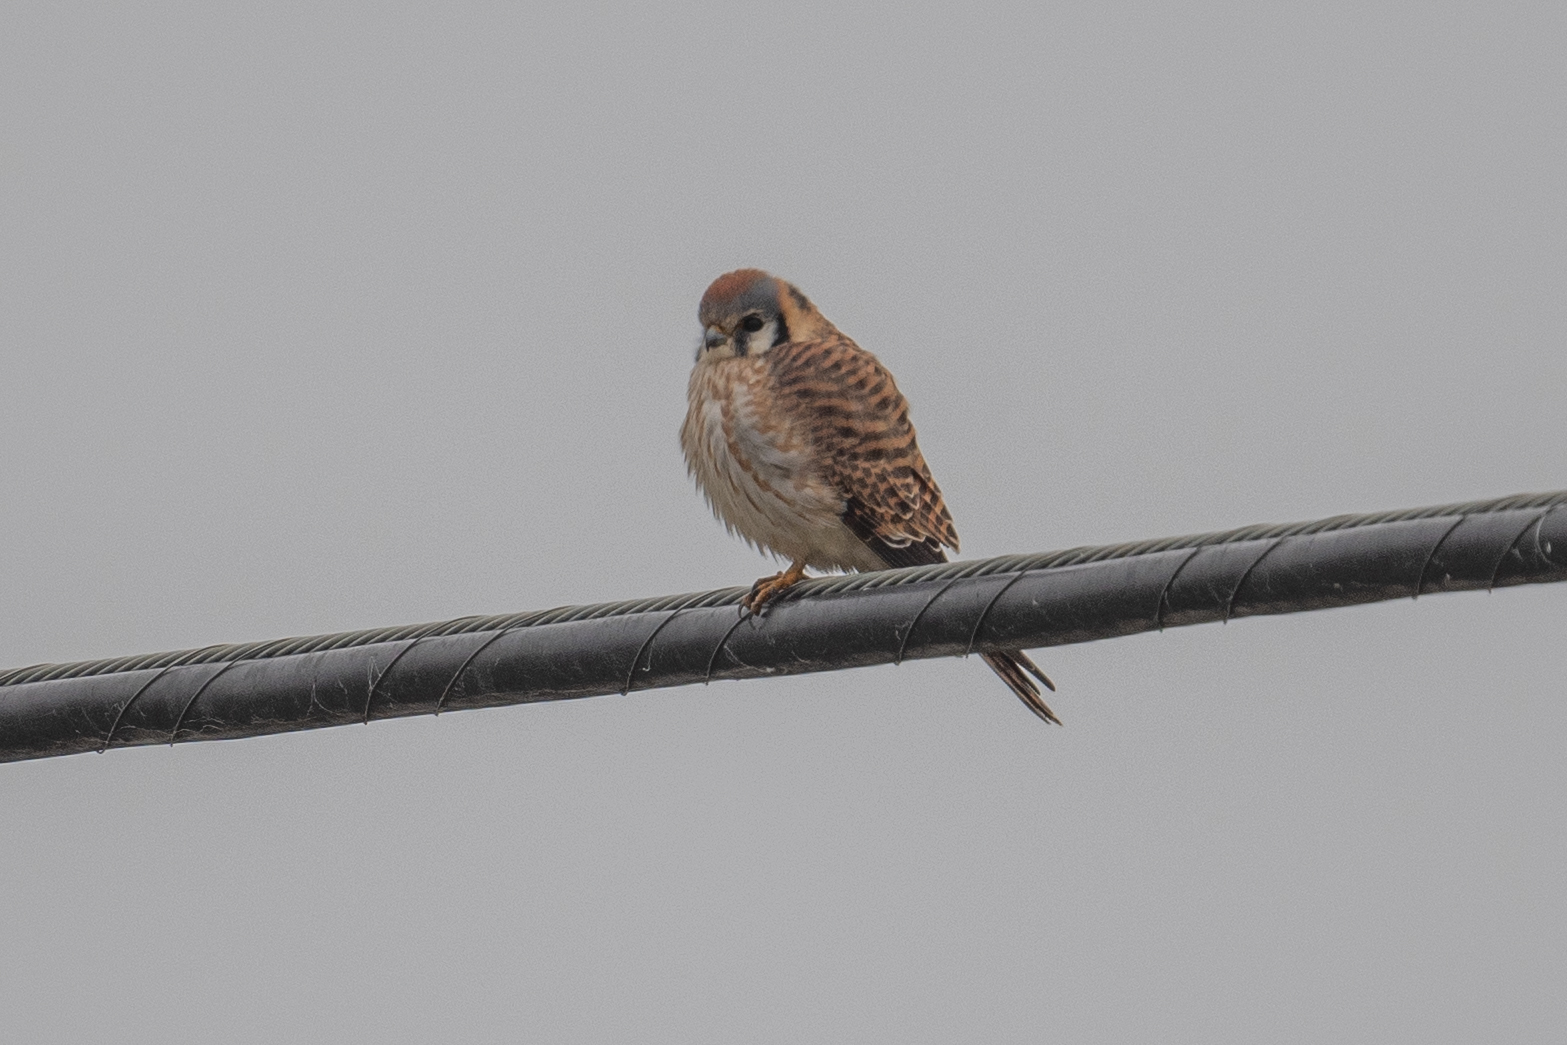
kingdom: Animalia
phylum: Chordata
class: Aves
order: Falconiformes
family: Falconidae
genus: Falco
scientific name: Falco sparverius
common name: American kestrel
